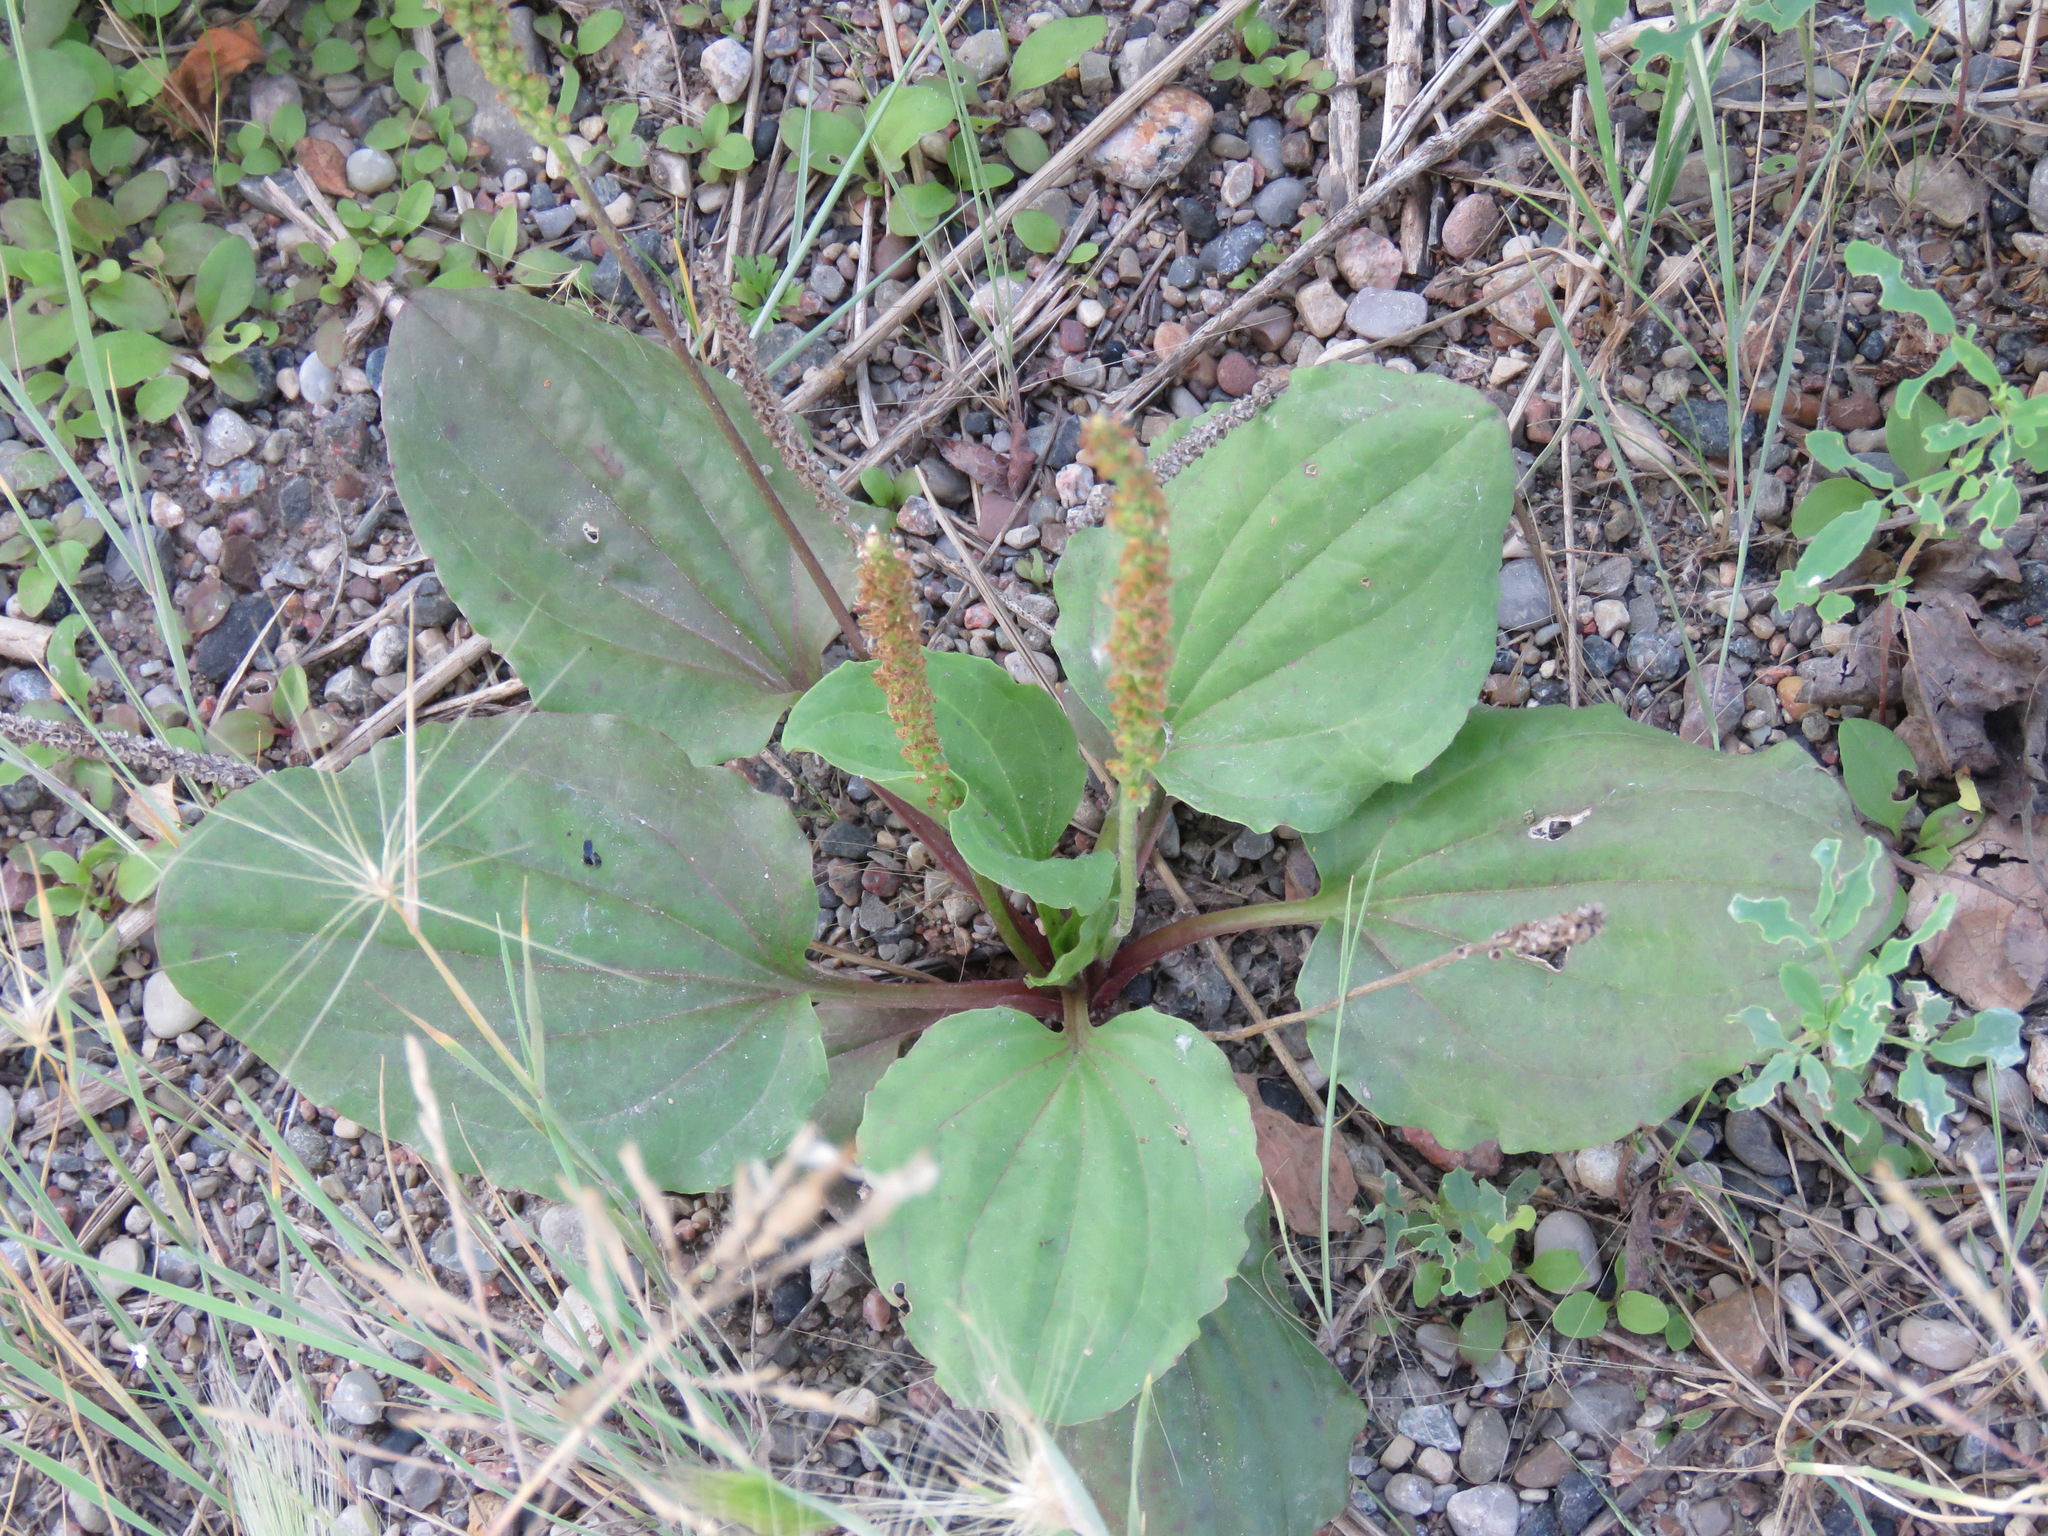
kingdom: Plantae
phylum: Tracheophyta
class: Magnoliopsida
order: Lamiales
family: Plantaginaceae
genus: Plantago
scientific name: Plantago major
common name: Common plantain
